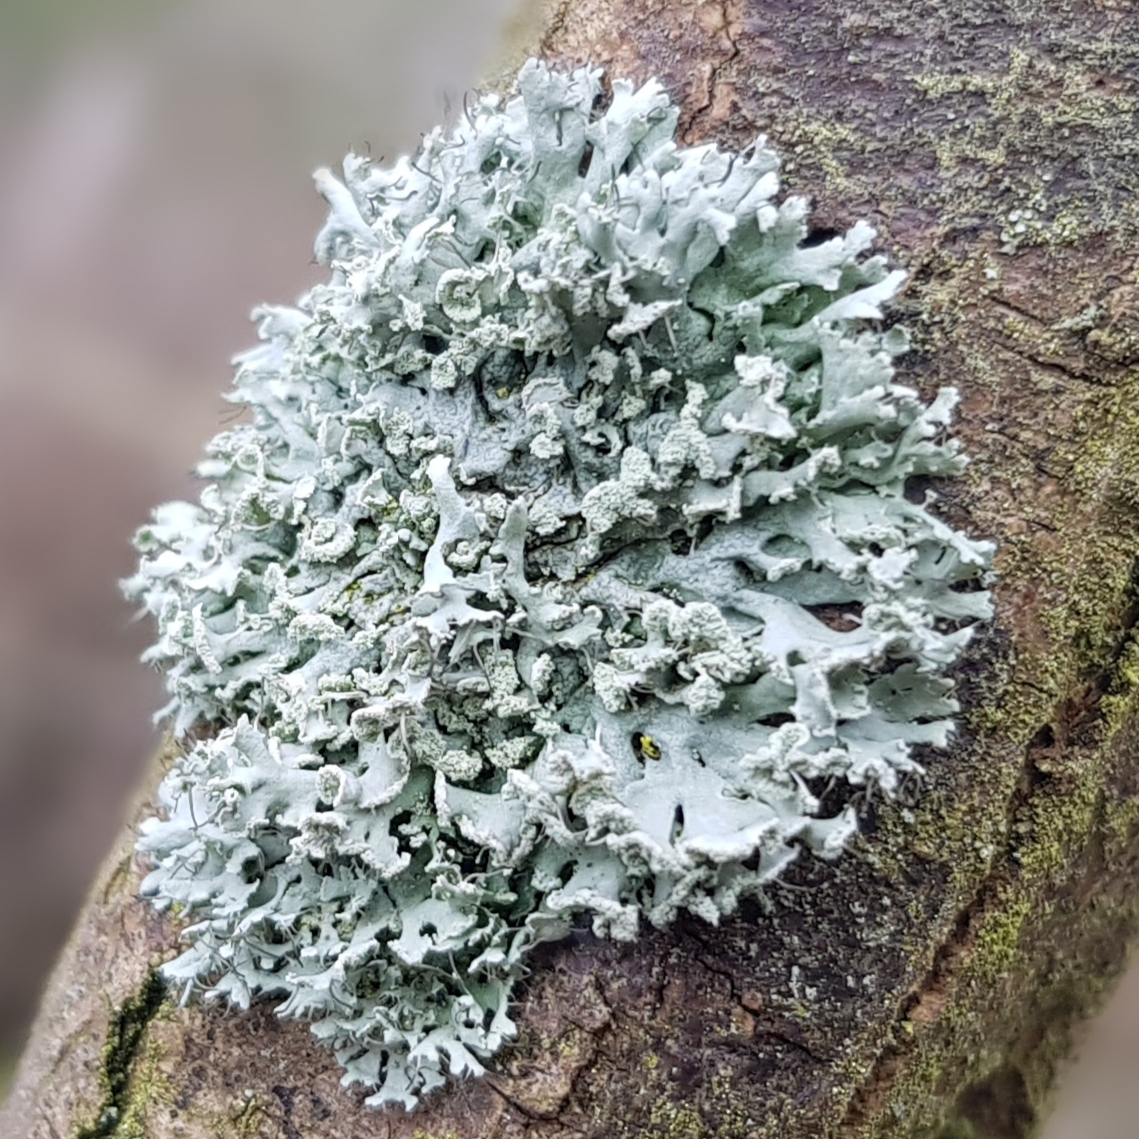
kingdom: Fungi
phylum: Ascomycota
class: Lecanoromycetes
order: Caliciales
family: Physciaceae
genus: Physcia
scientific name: Physcia tenella
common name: Fringed rosette lichen
